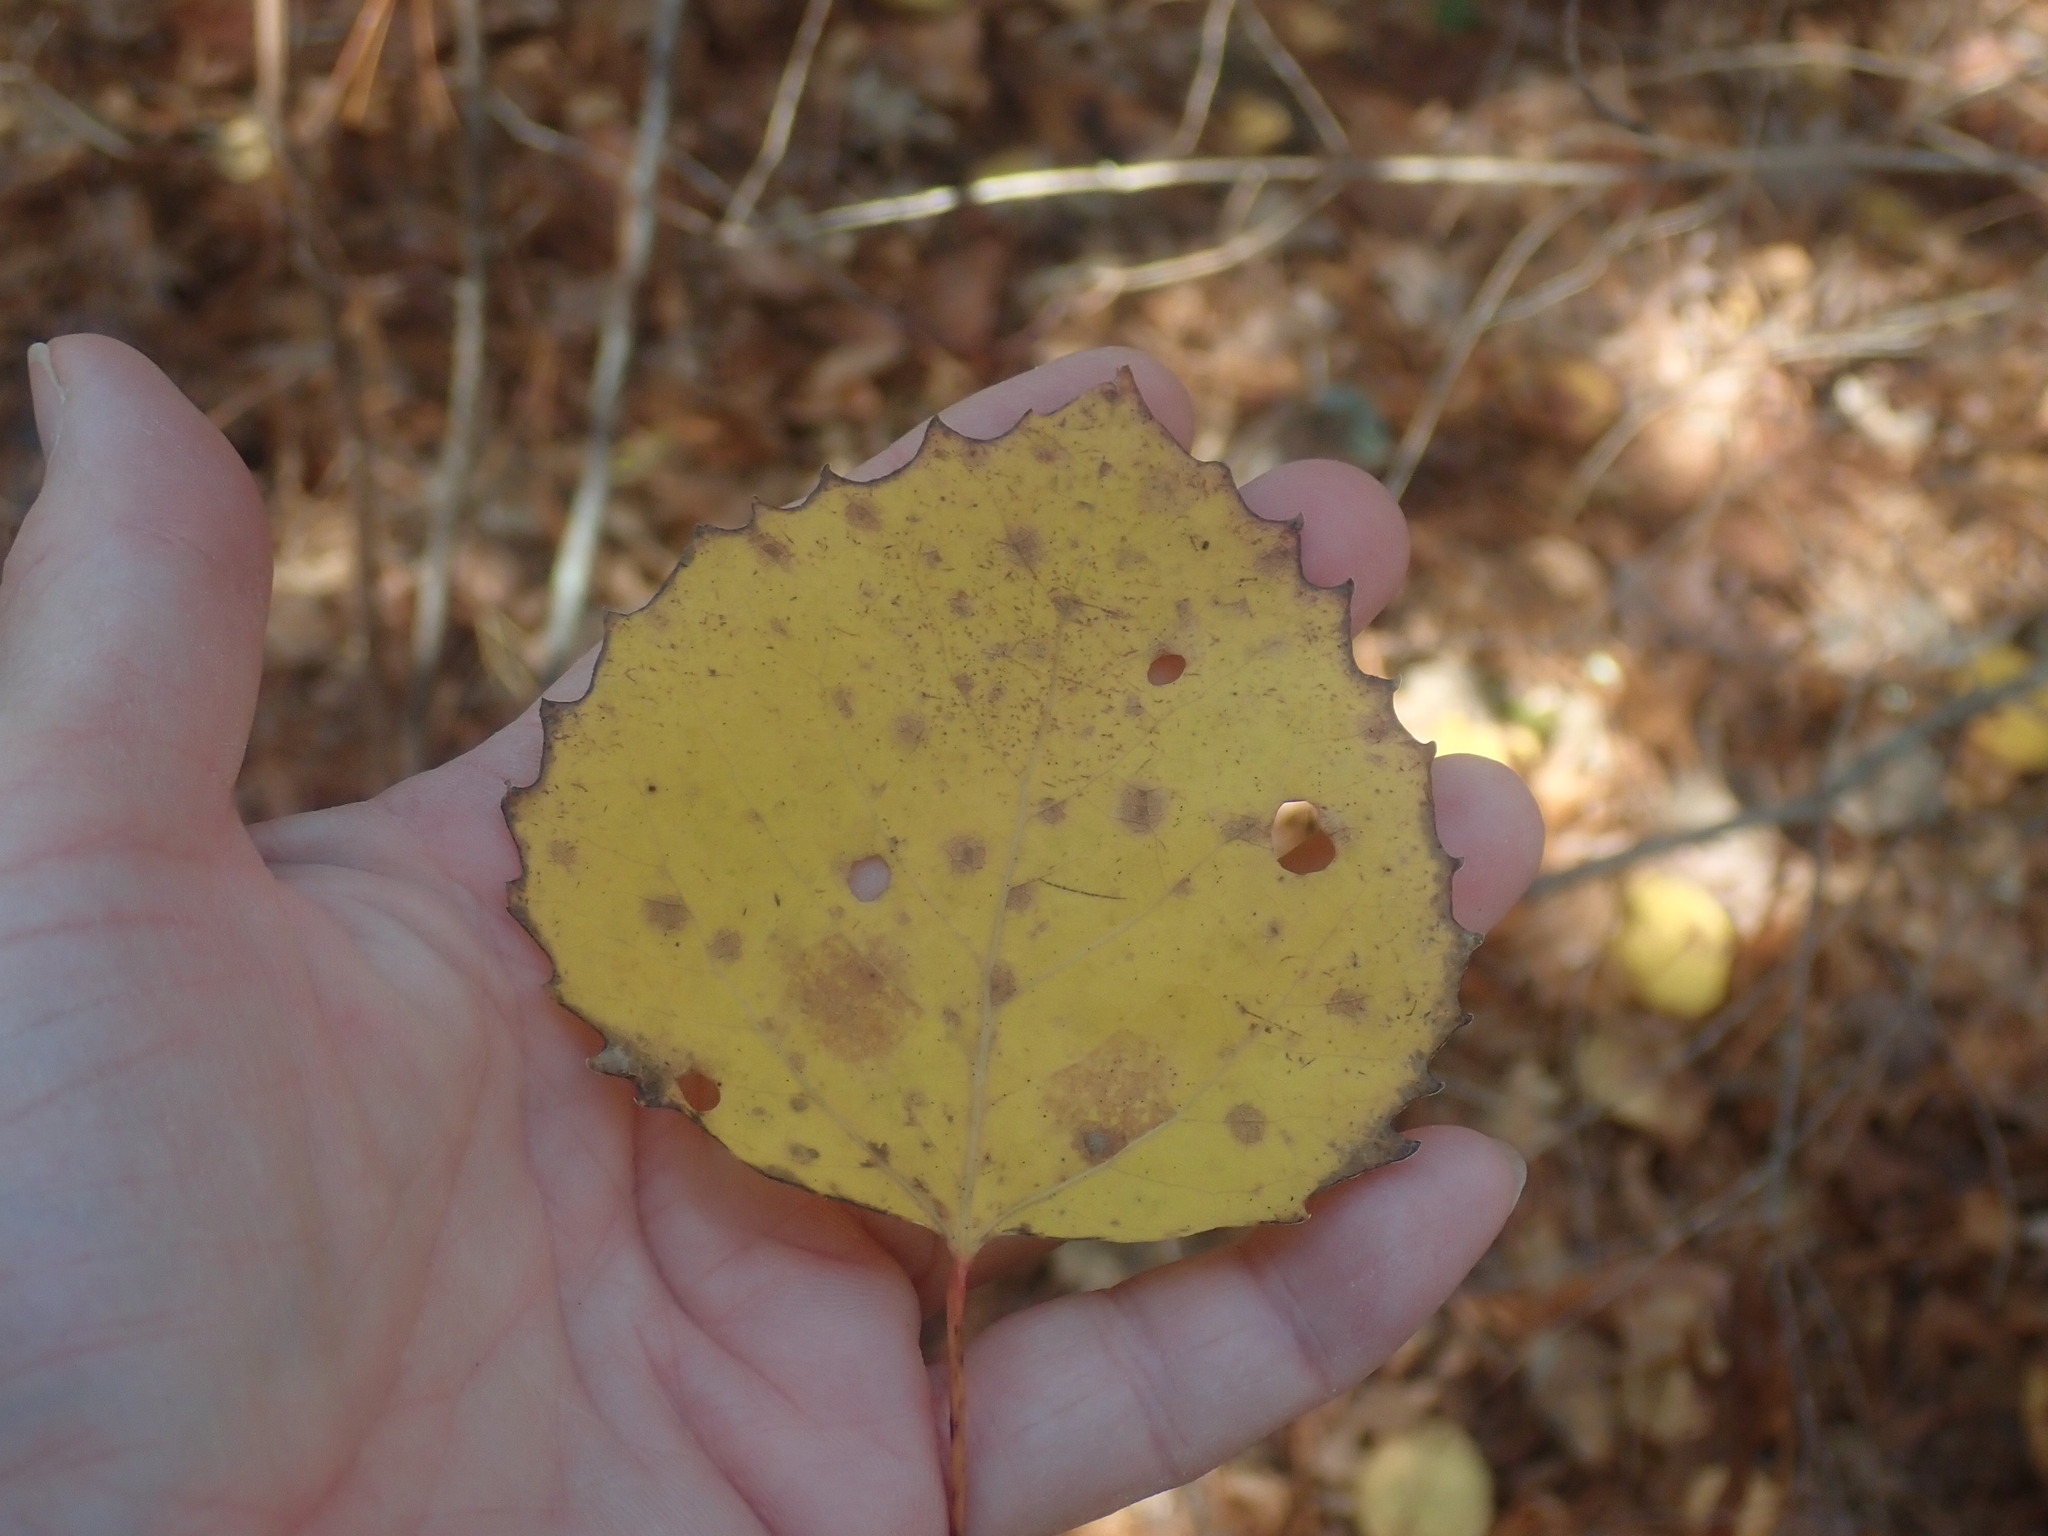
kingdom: Plantae
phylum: Tracheophyta
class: Magnoliopsida
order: Malpighiales
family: Salicaceae
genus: Populus
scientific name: Populus grandidentata
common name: Bigtooth aspen
